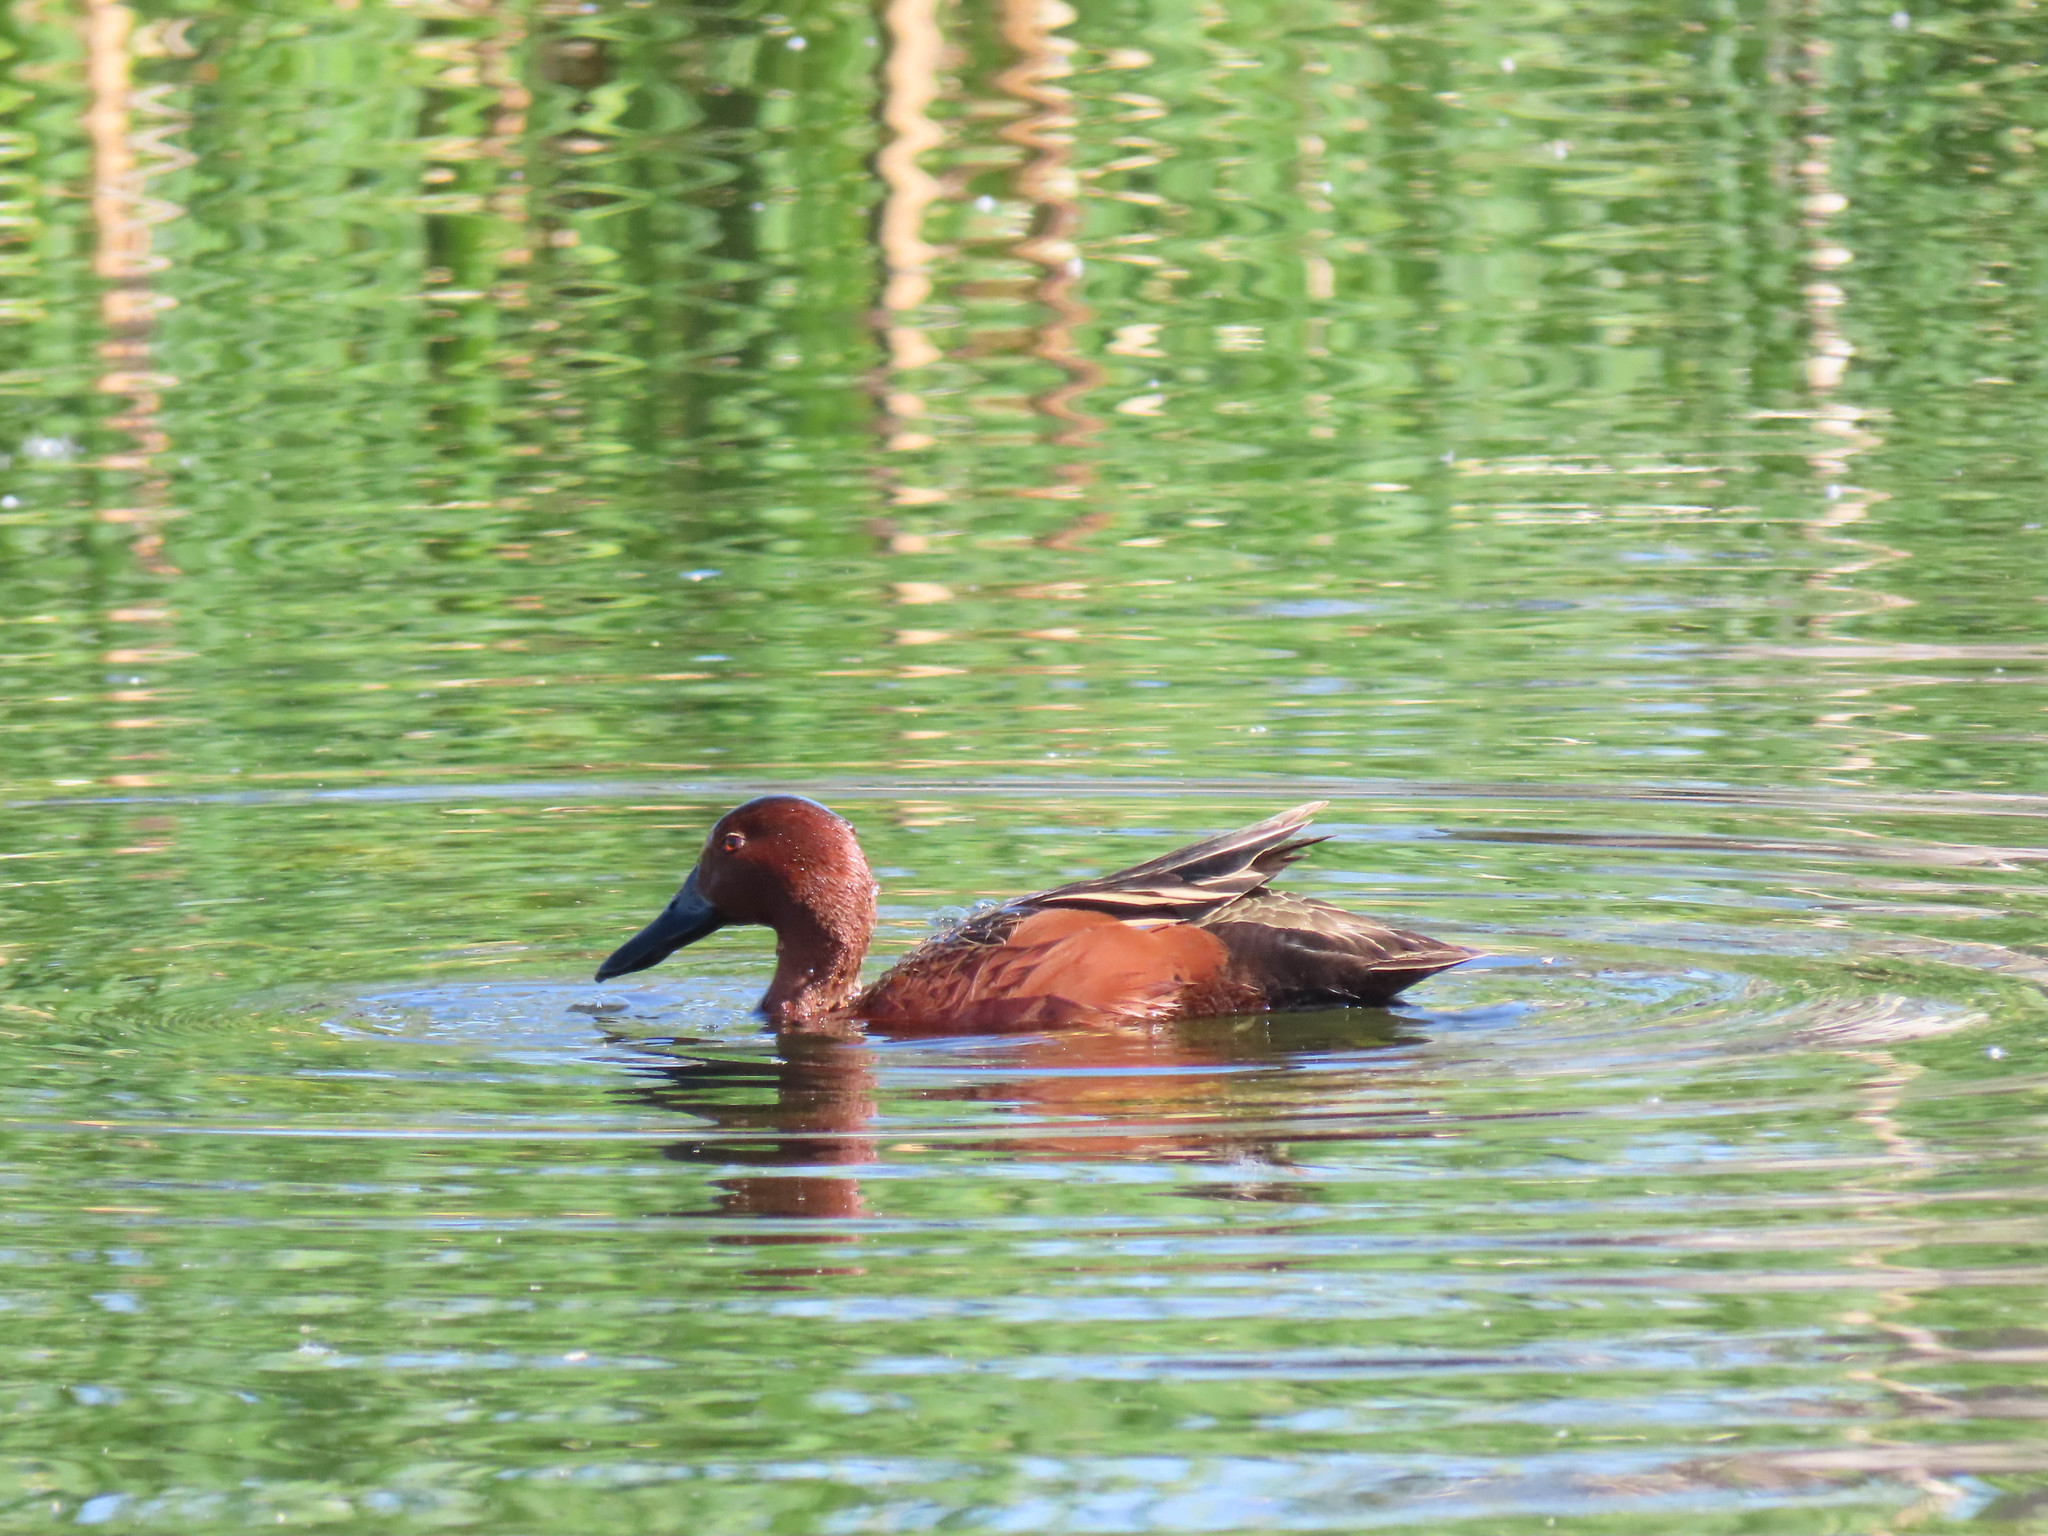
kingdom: Animalia
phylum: Chordata
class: Aves
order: Anseriformes
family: Anatidae
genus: Spatula
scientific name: Spatula cyanoptera
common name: Cinnamon teal
